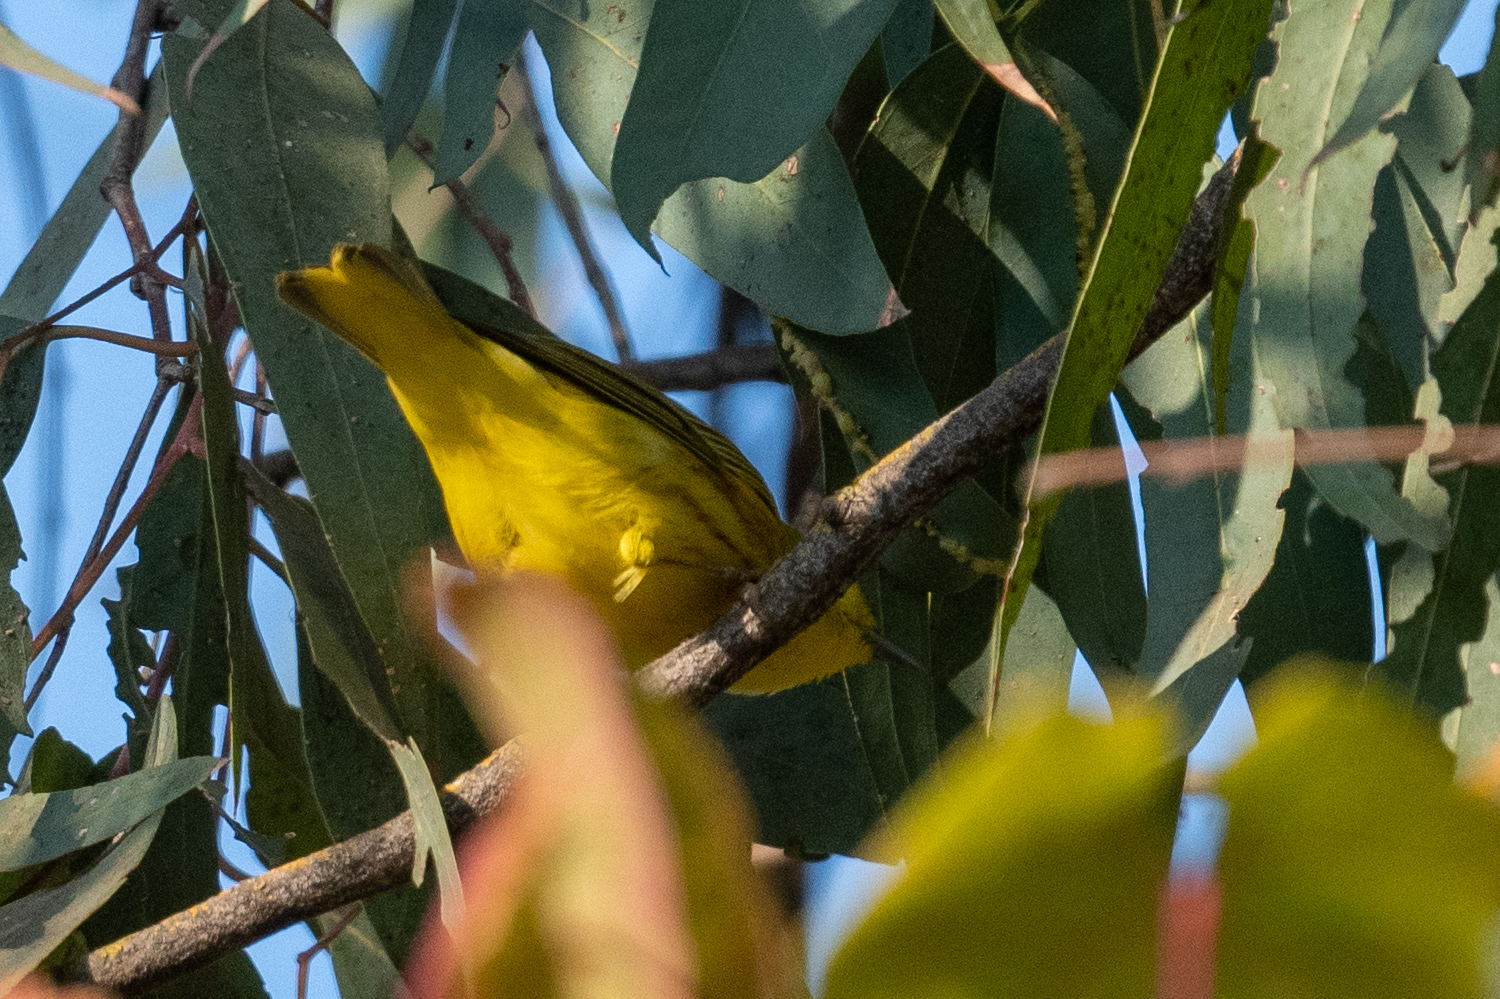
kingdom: Animalia
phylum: Chordata
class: Aves
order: Passeriformes
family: Parulidae
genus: Setophaga
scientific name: Setophaga petechia
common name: Yellow warbler
